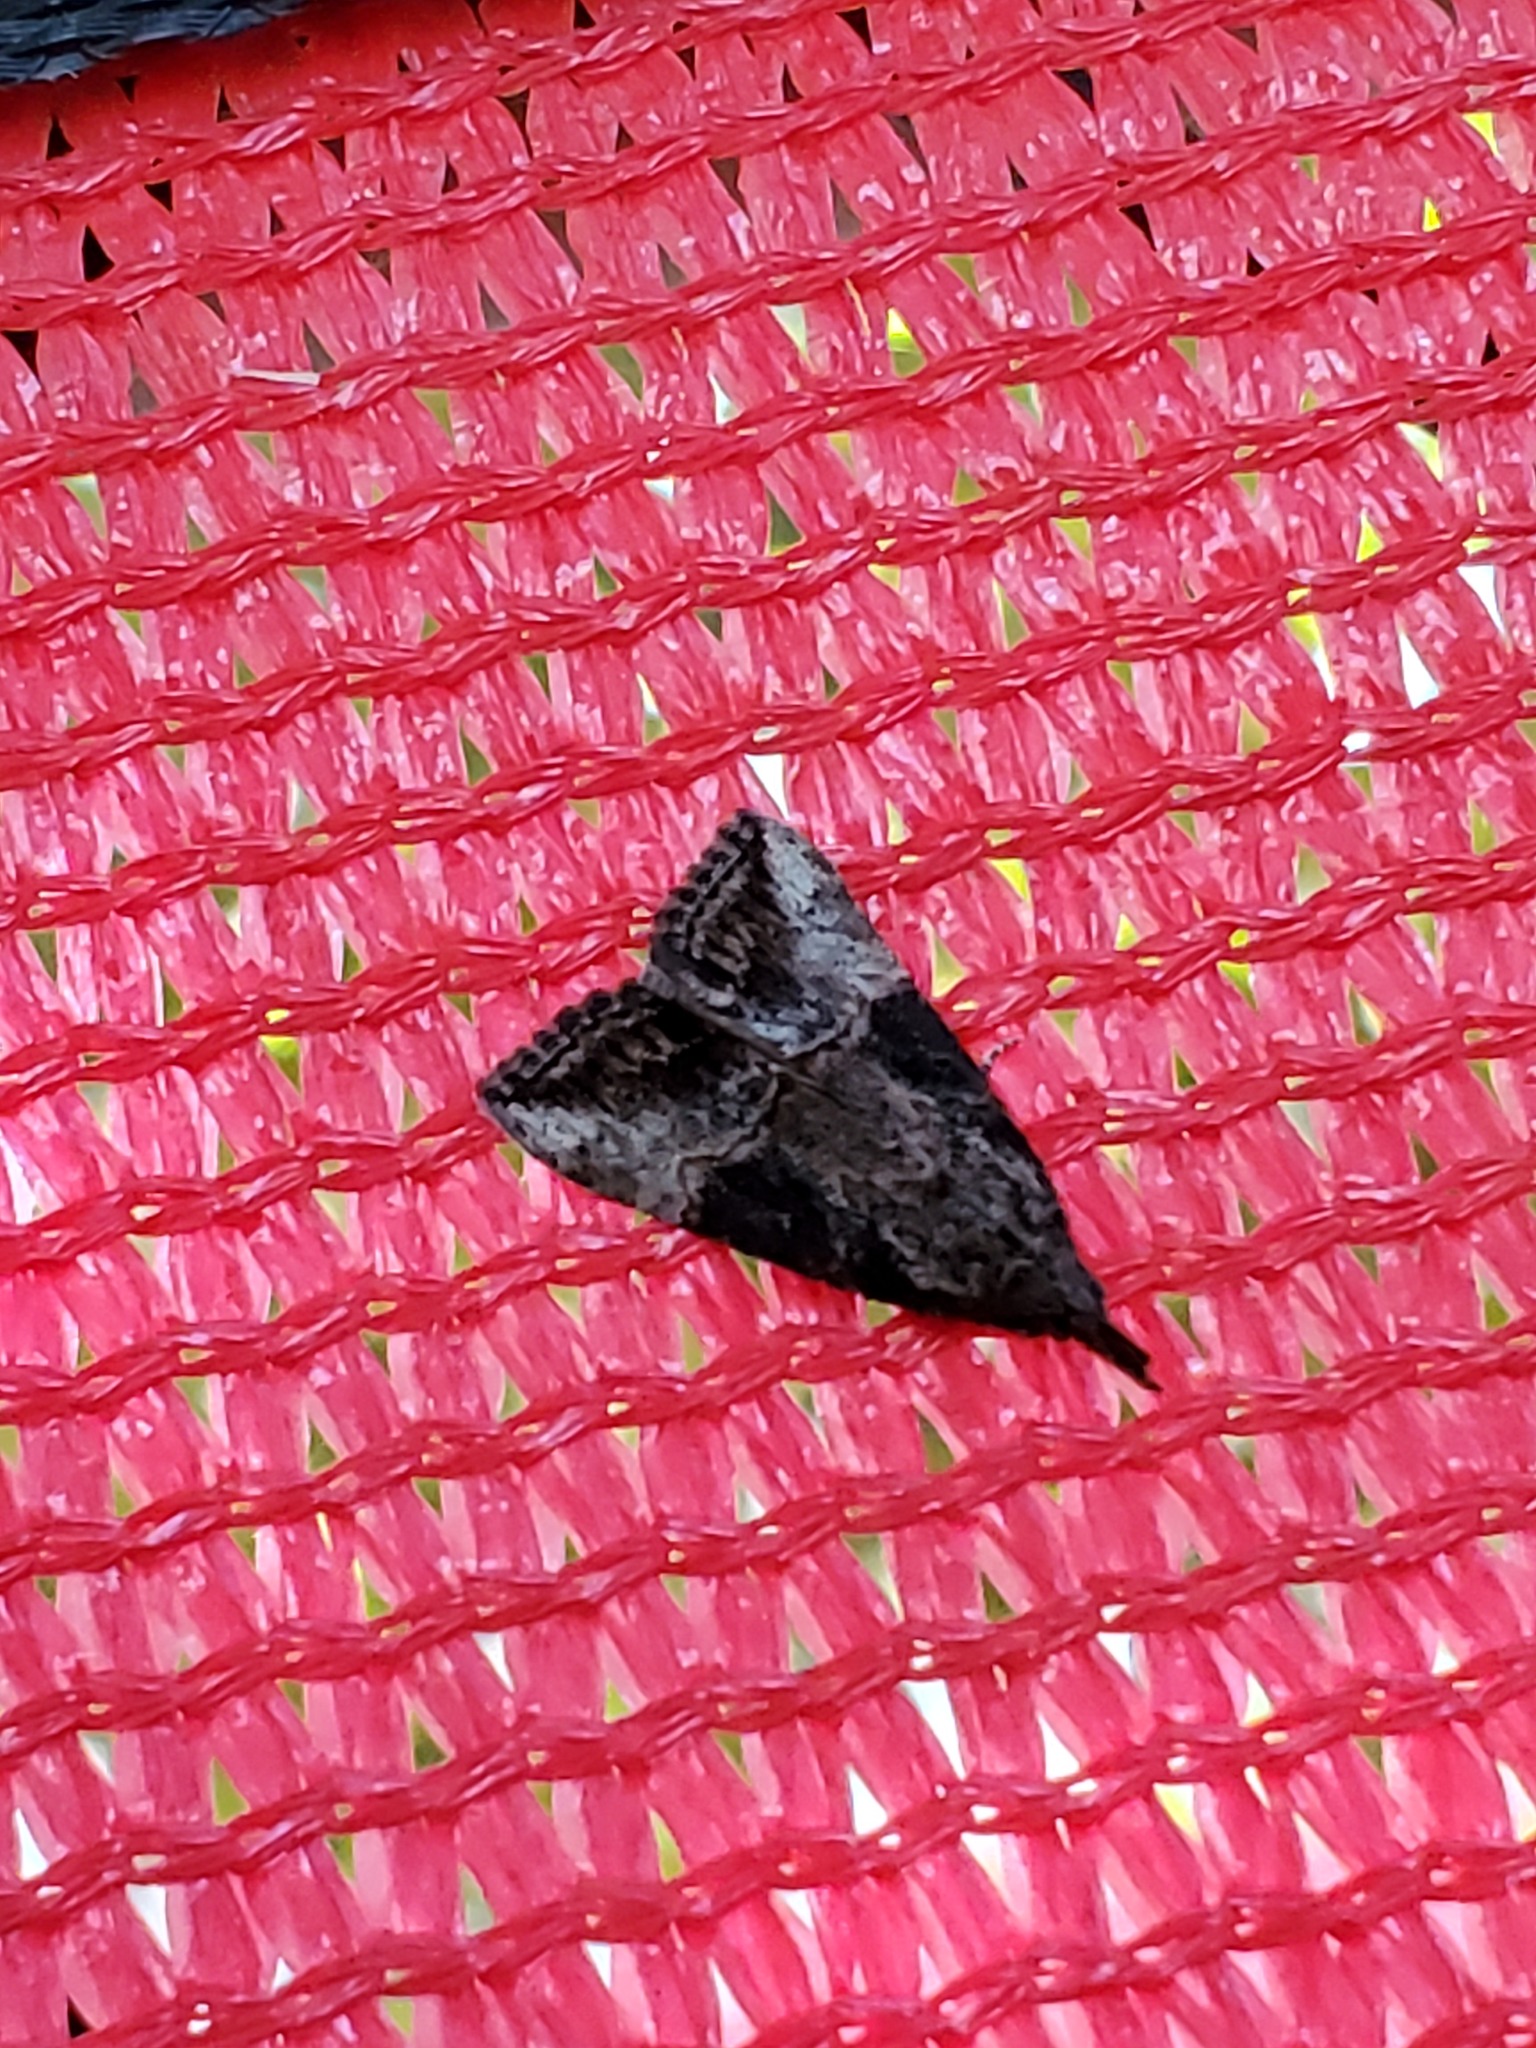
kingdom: Animalia
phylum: Arthropoda
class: Insecta
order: Lepidoptera
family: Erebidae
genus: Hypena
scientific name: Hypena scabra
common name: Green cloverworm
